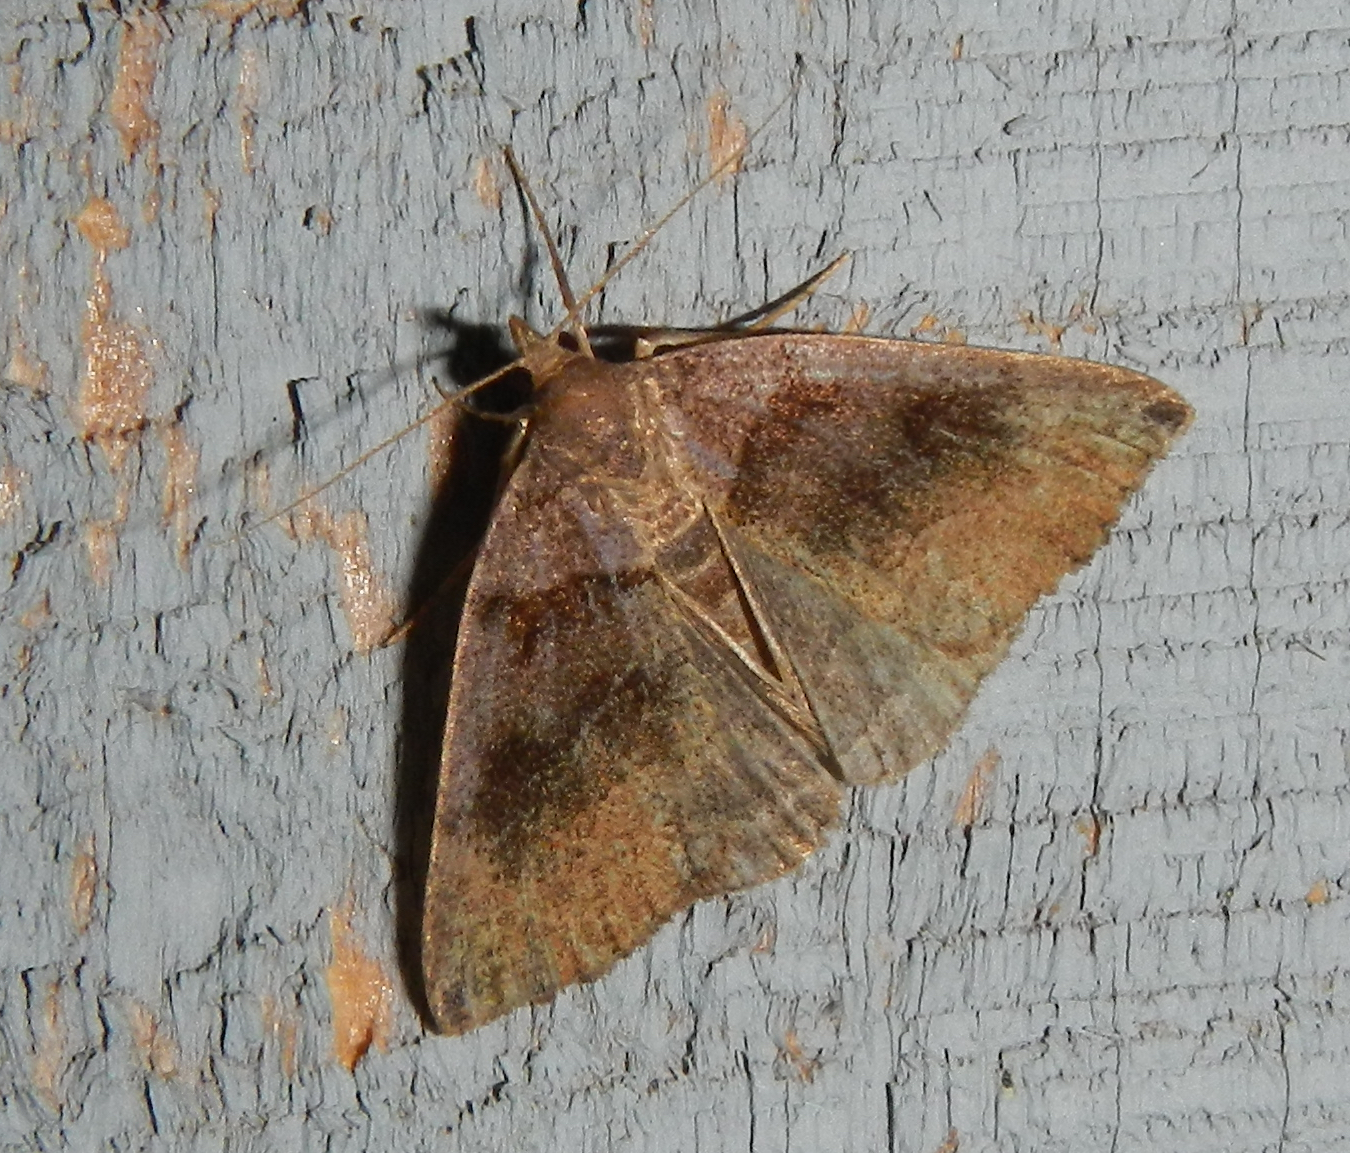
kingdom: Animalia
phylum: Arthropoda
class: Insecta
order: Lepidoptera
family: Erebidae
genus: Zanclognatha
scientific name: Zanclognatha laevigata
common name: Variable fan-foot
